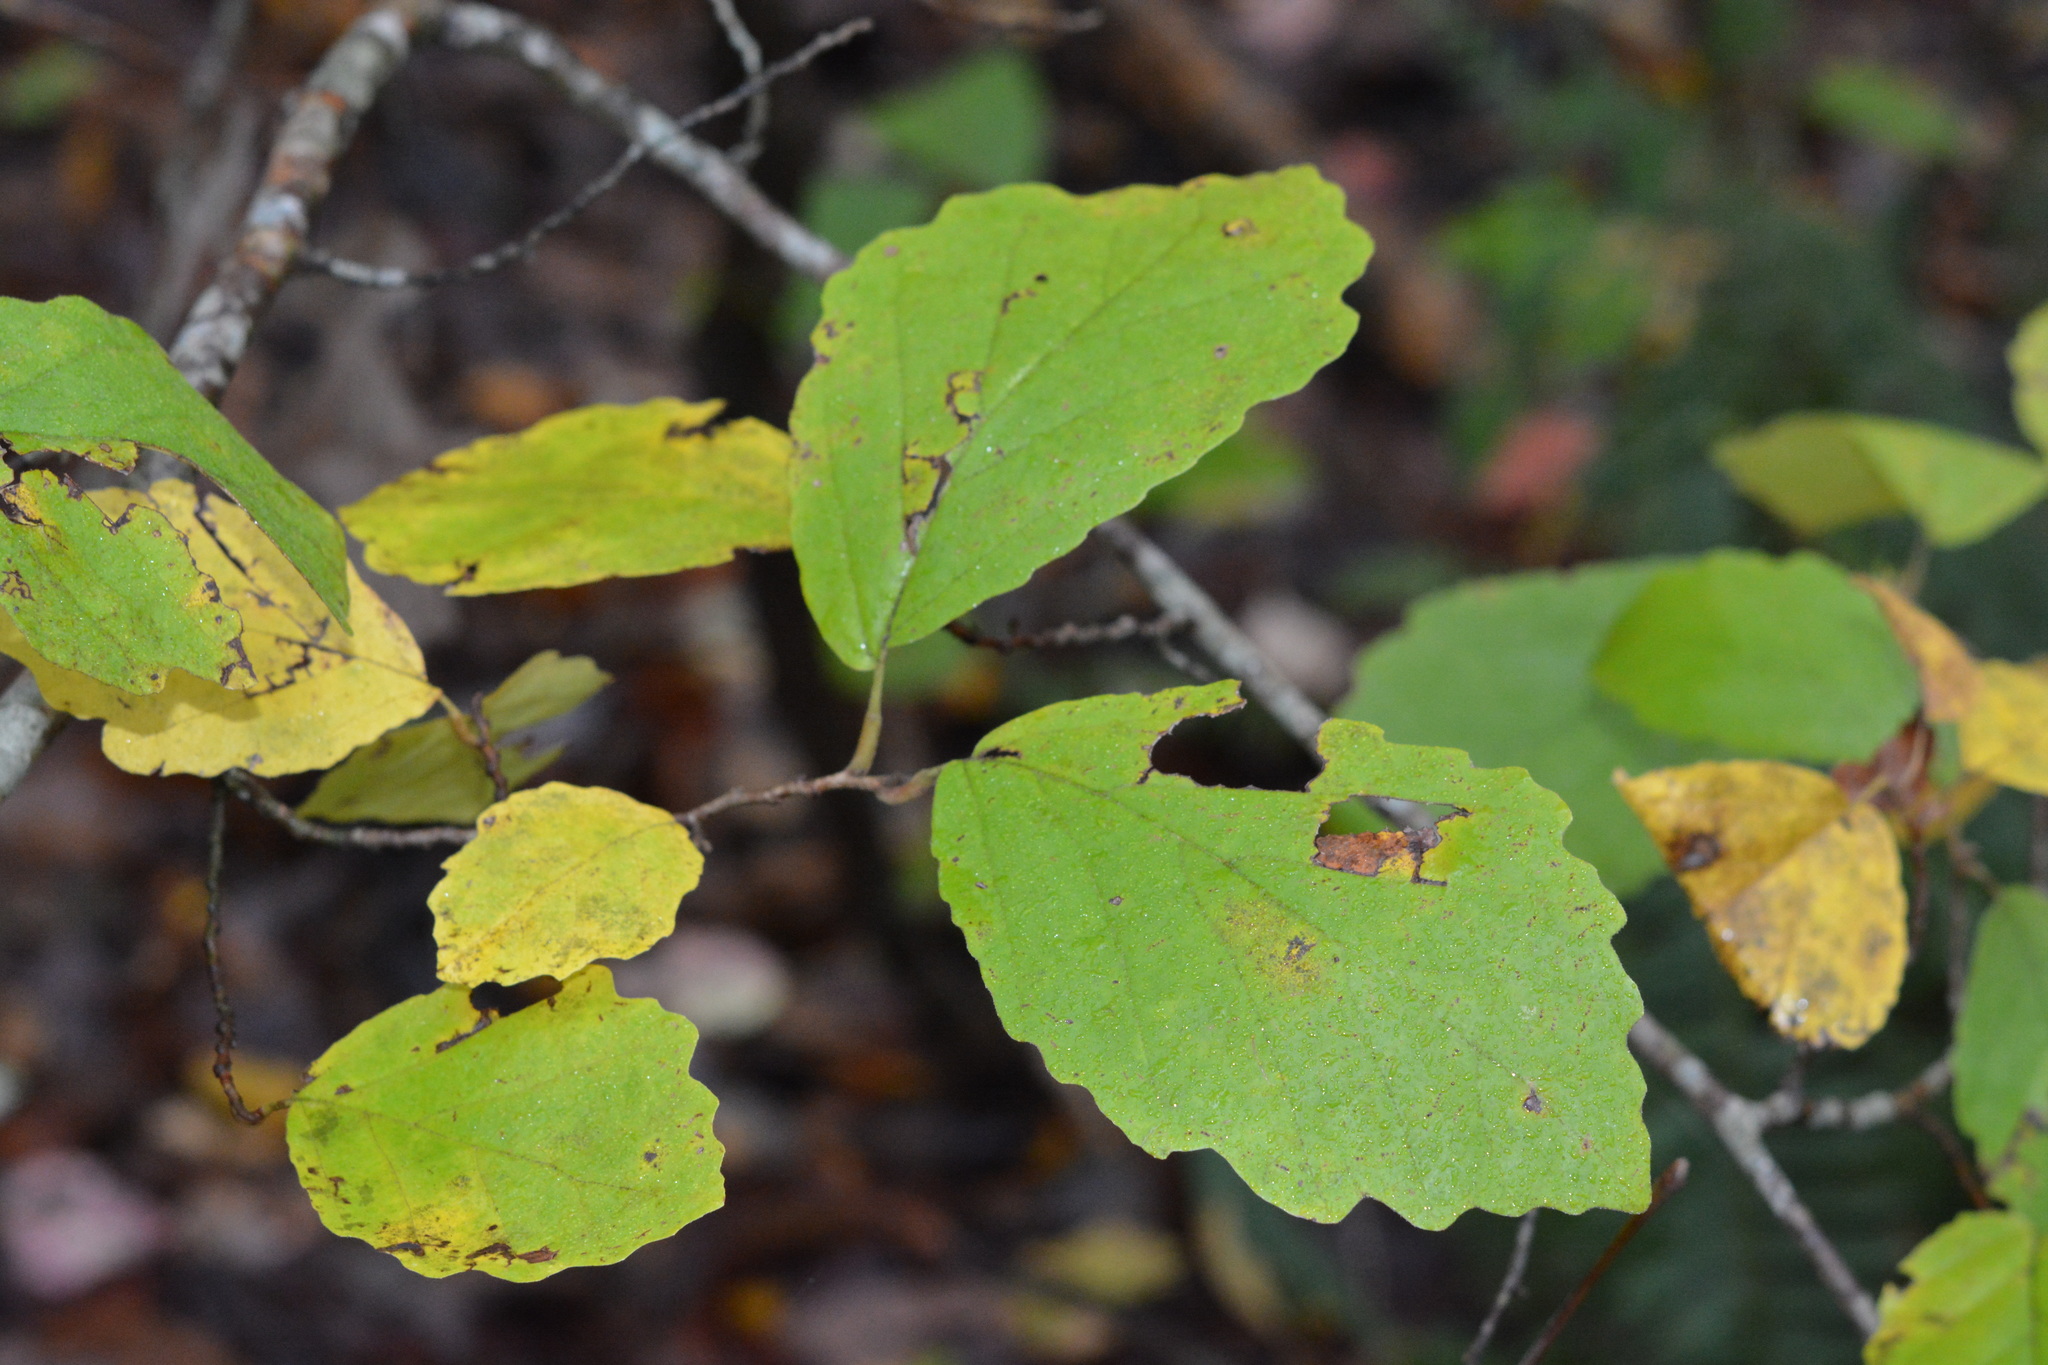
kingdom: Plantae
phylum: Tracheophyta
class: Magnoliopsida
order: Saxifragales
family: Hamamelidaceae
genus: Hamamelis
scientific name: Hamamelis virginiana
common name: Witch-hazel
